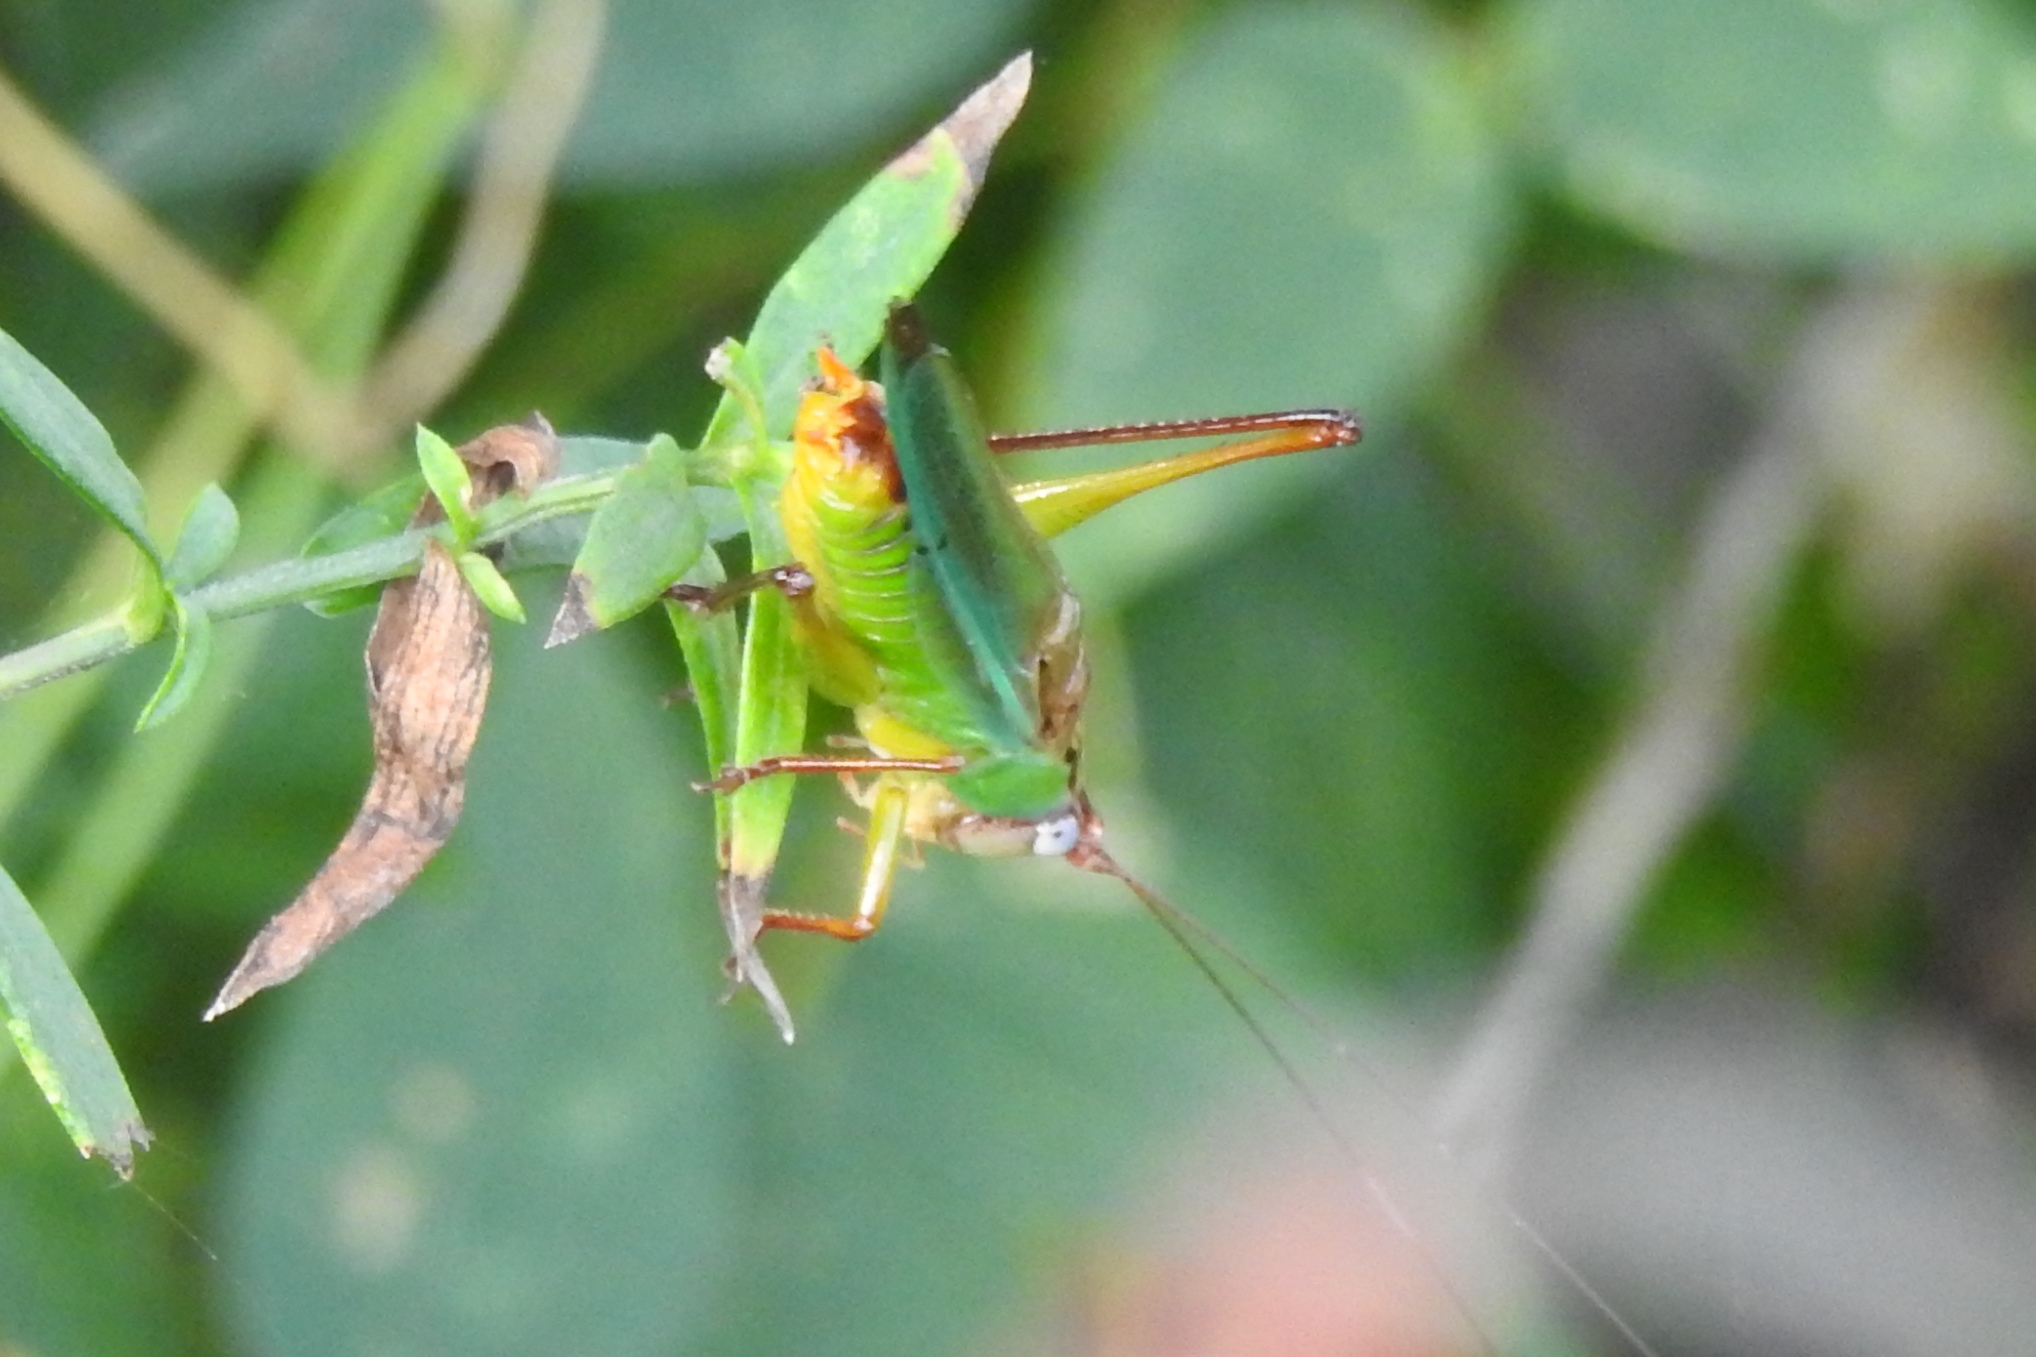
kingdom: Animalia
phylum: Arthropoda
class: Insecta
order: Orthoptera
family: Tettigoniidae
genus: Orchelimum
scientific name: Orchelimum pulchellum
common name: Handsome meadow katydid
